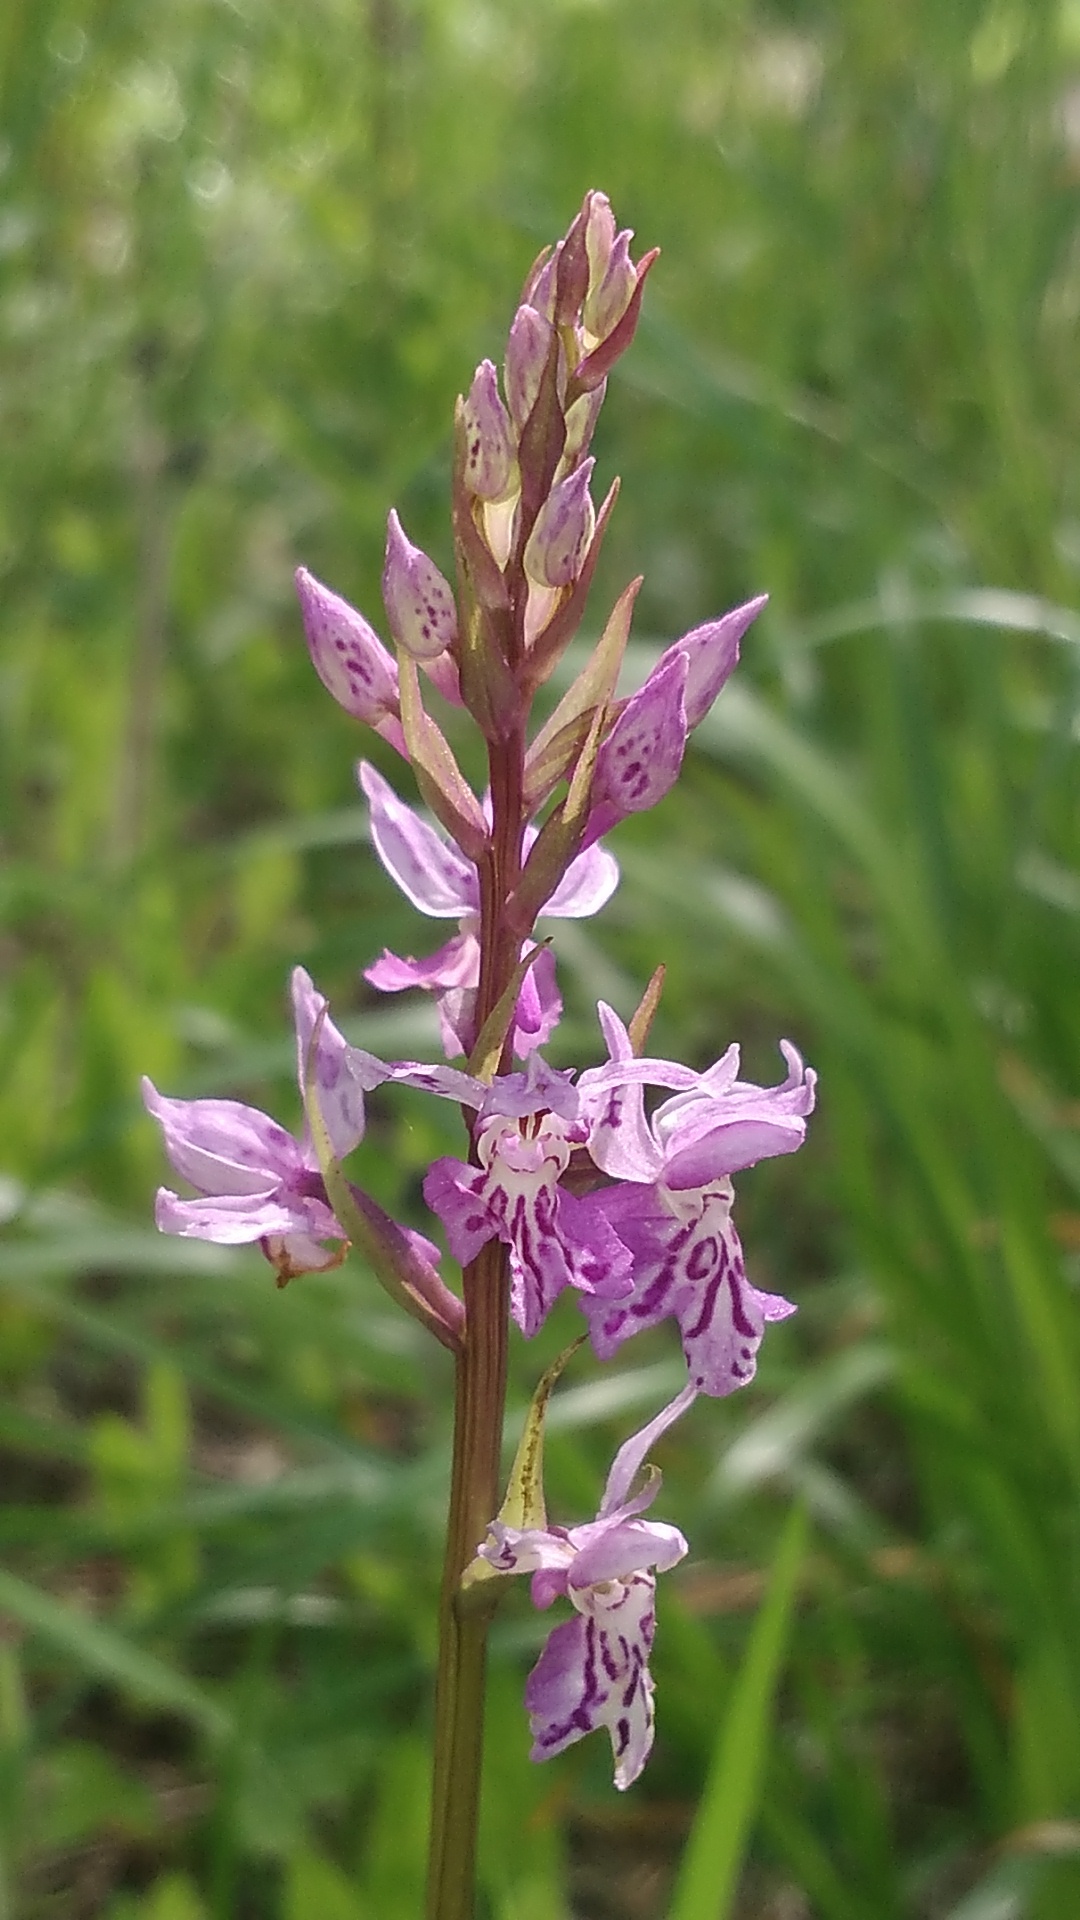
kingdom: Plantae
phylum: Tracheophyta
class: Liliopsida
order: Asparagales
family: Orchidaceae
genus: Dactylorhiza
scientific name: Dactylorhiza maculata
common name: Heath spotted-orchid
